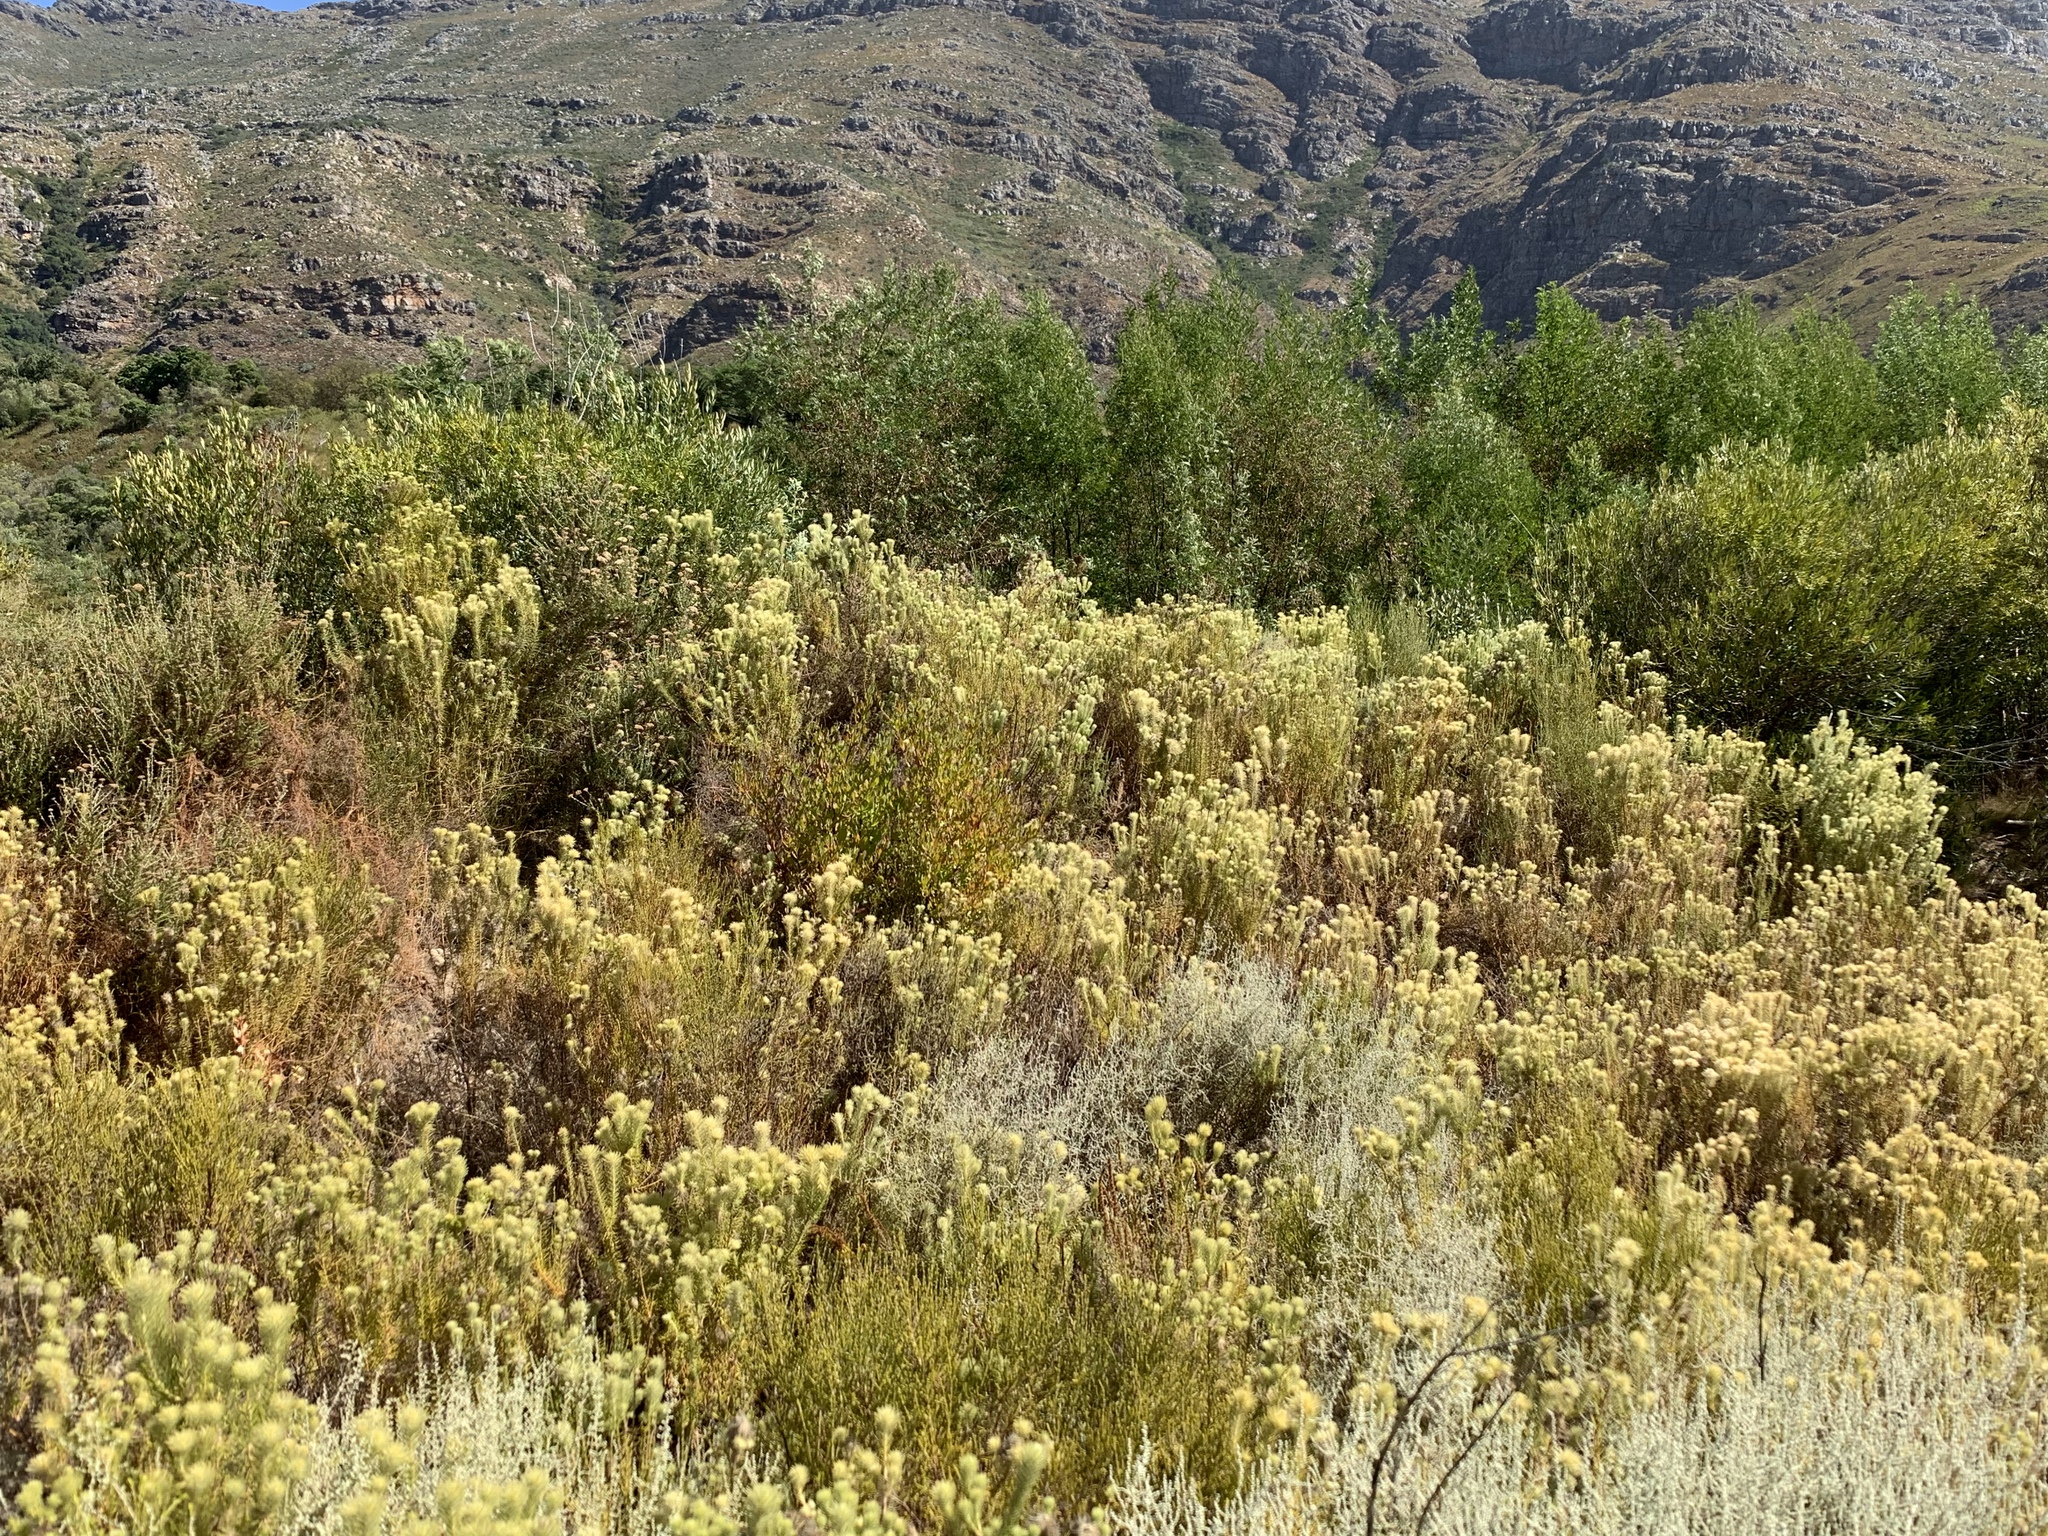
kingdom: Plantae
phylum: Tracheophyta
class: Magnoliopsida
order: Rosales
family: Rhamnaceae
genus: Phylica
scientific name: Phylica pubescens
